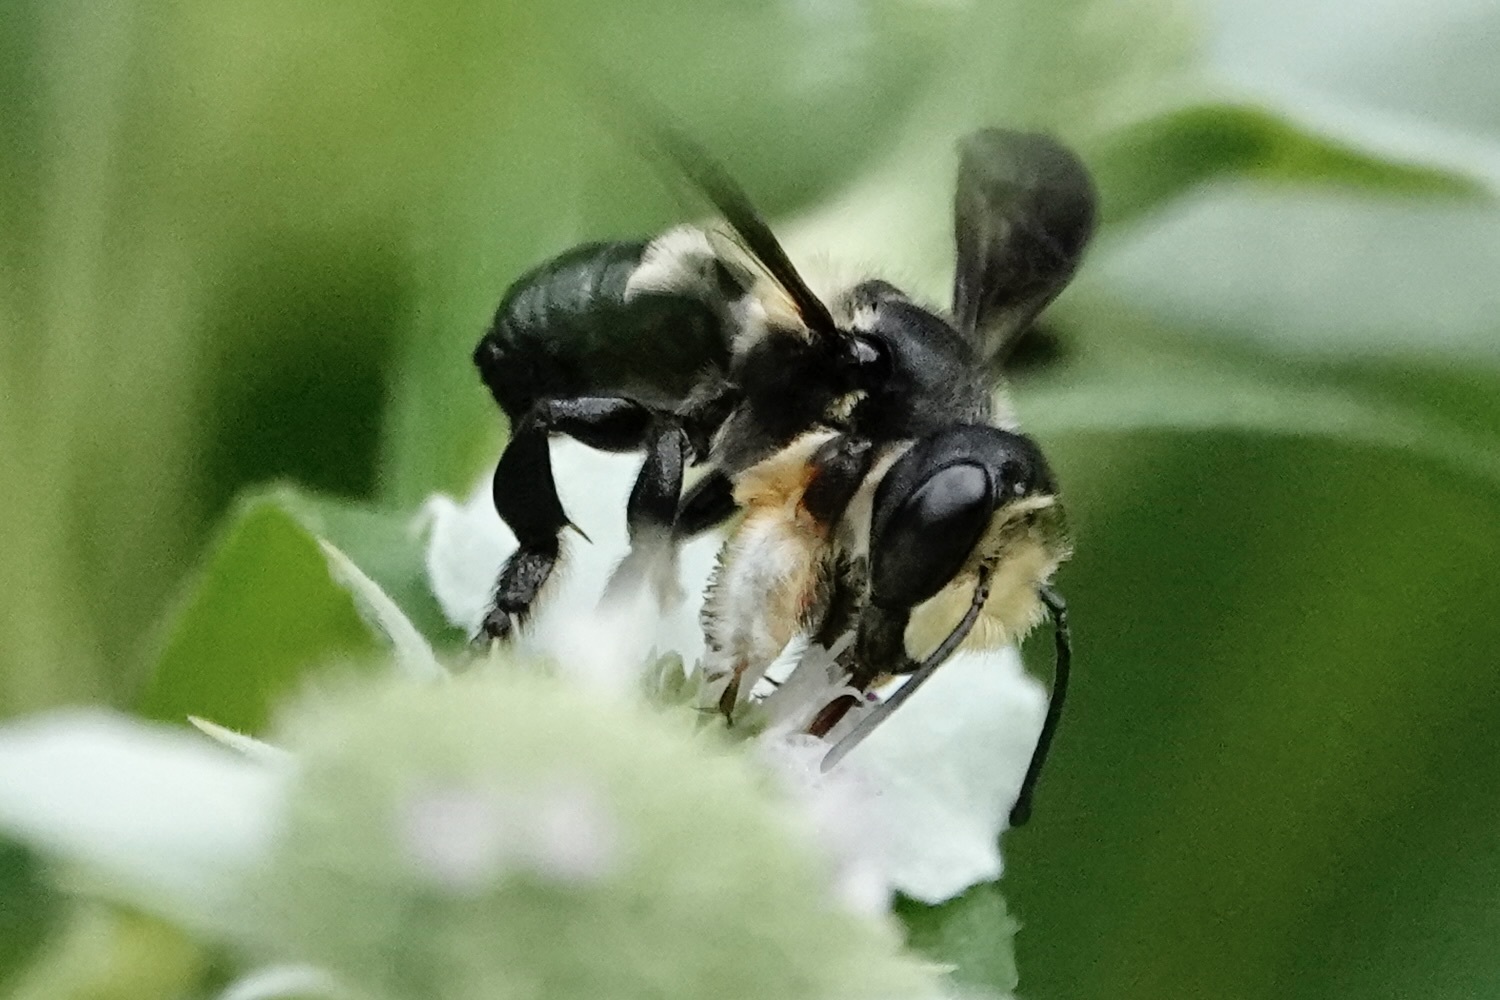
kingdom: Animalia
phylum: Arthropoda
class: Insecta
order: Hymenoptera
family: Megachilidae
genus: Megachile
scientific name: Megachile xylocopoides
